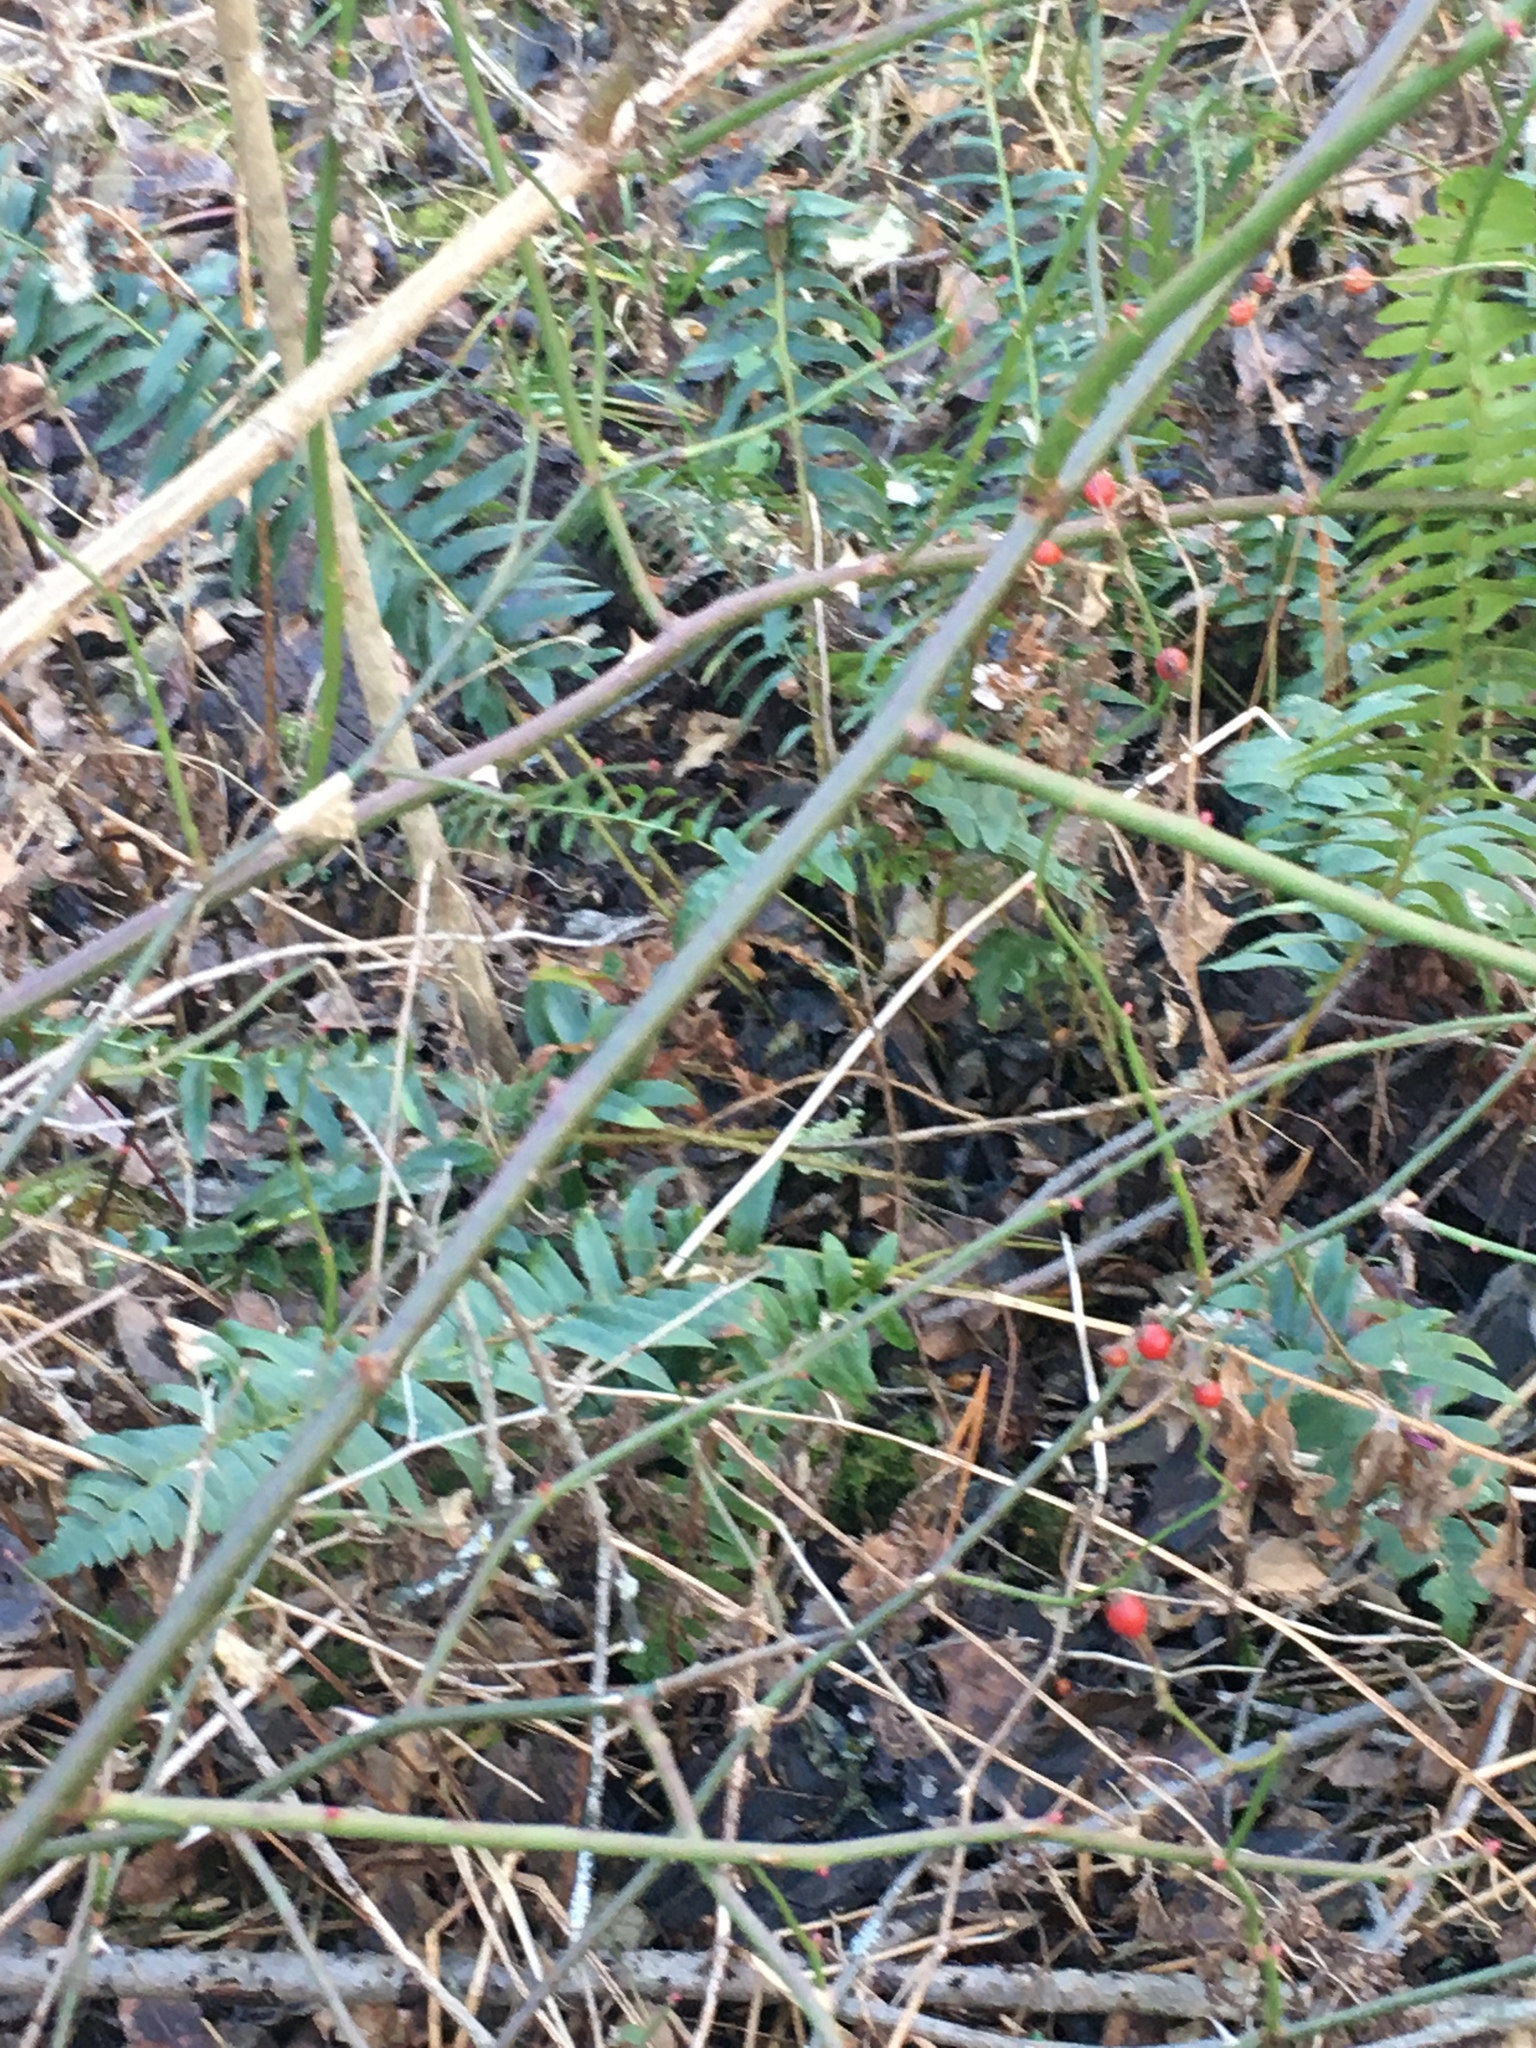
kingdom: Plantae
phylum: Tracheophyta
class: Polypodiopsida
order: Polypodiales
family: Dryopteridaceae
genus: Polystichum
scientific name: Polystichum acrostichoides
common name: Christmas fern
